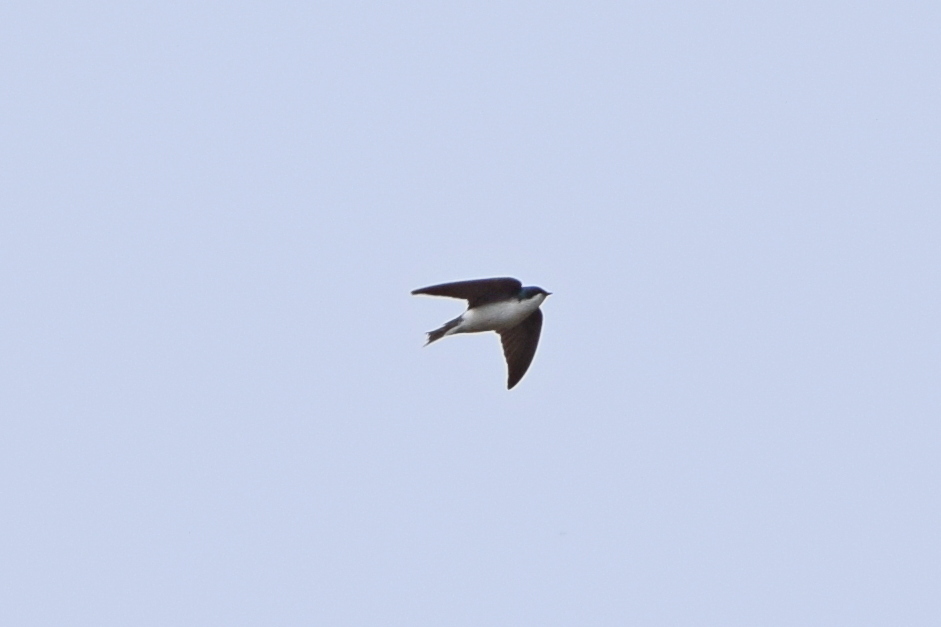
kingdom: Animalia
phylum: Chordata
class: Aves
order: Passeriformes
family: Hirundinidae
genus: Tachycineta
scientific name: Tachycineta bicolor
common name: Tree swallow
